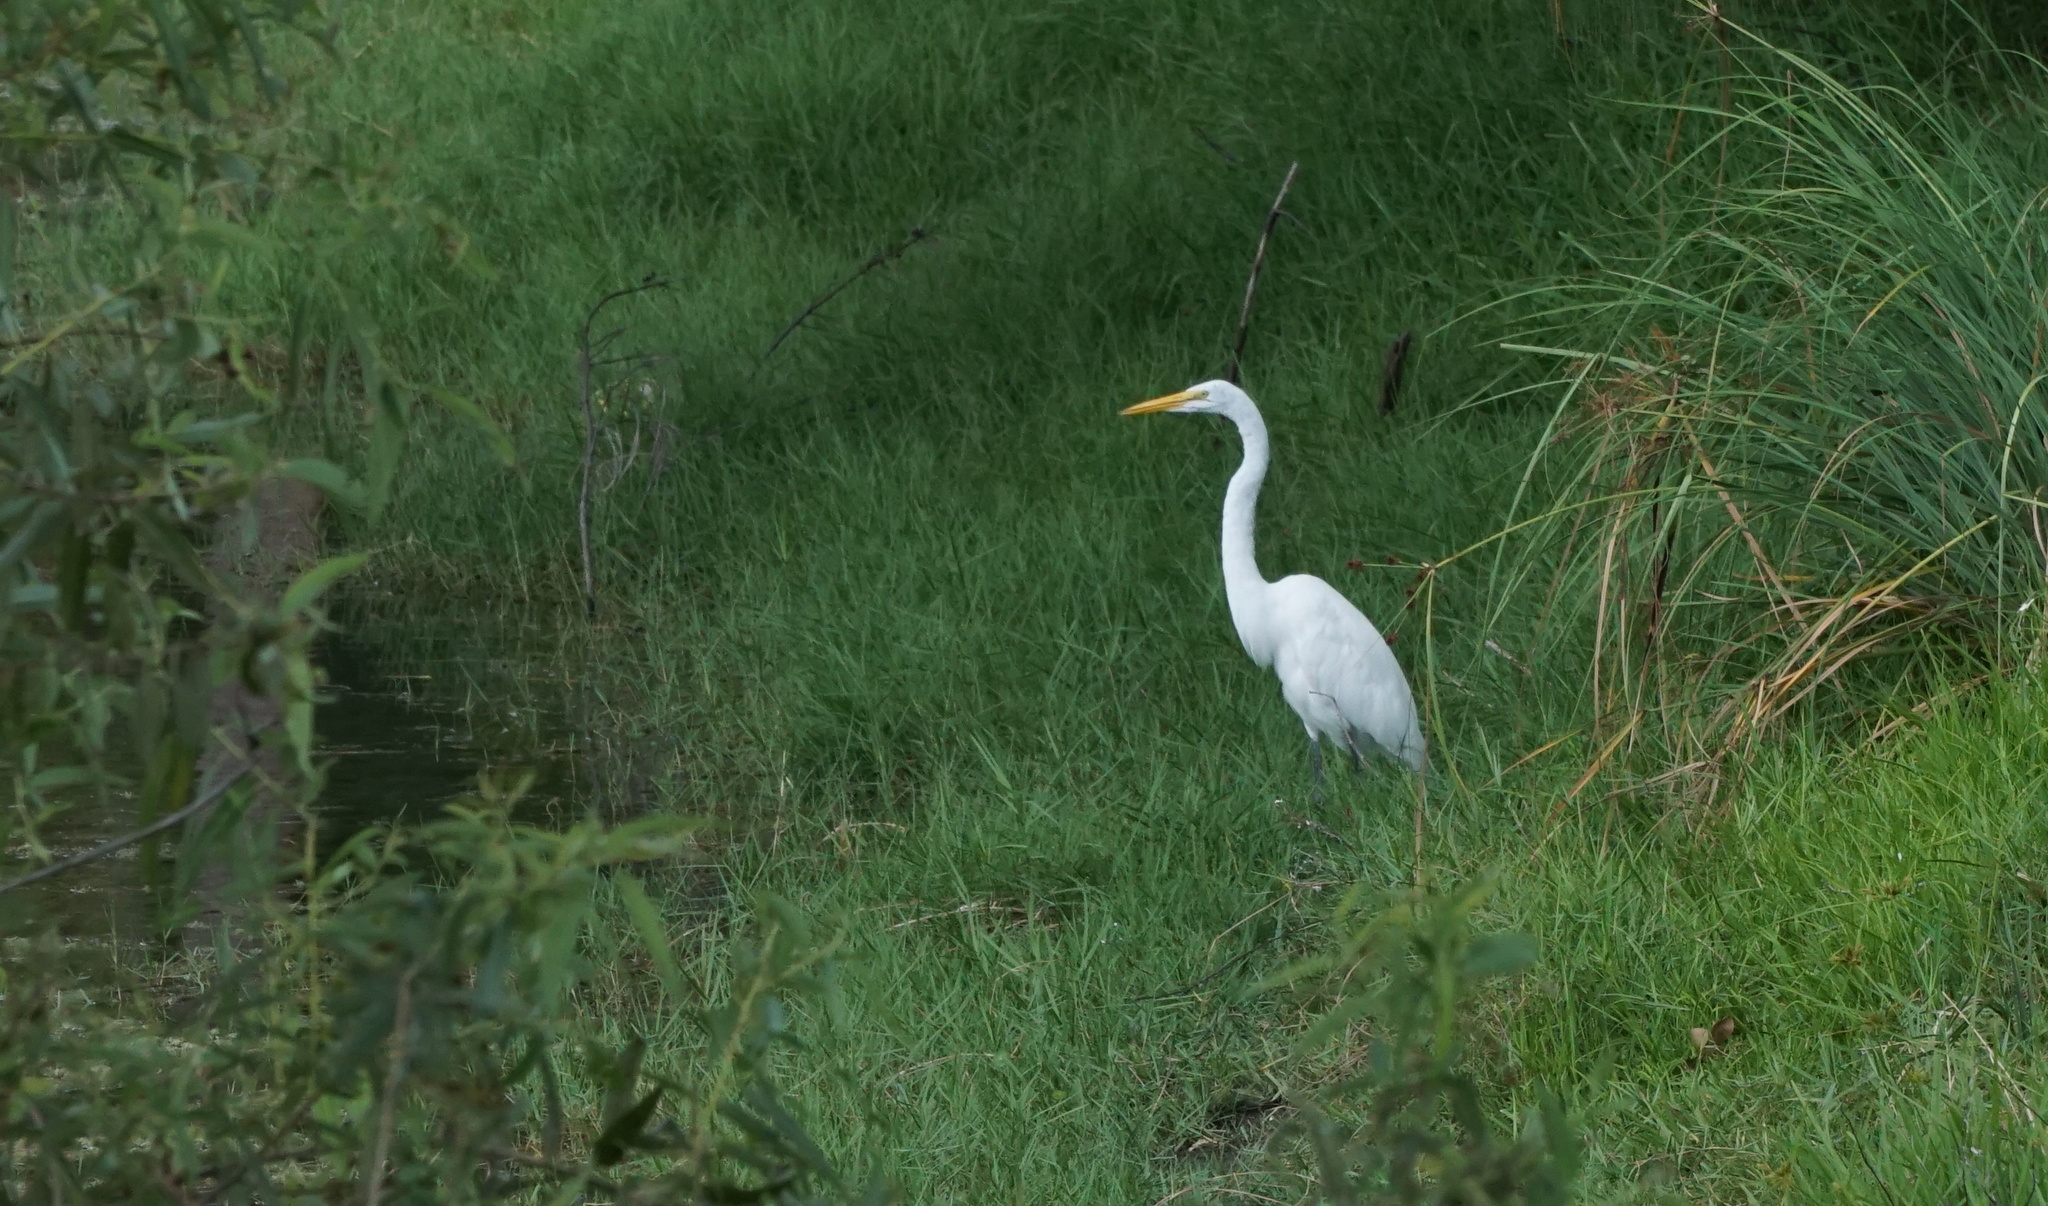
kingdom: Animalia
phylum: Chordata
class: Aves
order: Pelecaniformes
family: Ardeidae
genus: Ardea
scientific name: Ardea alba
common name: Great egret
